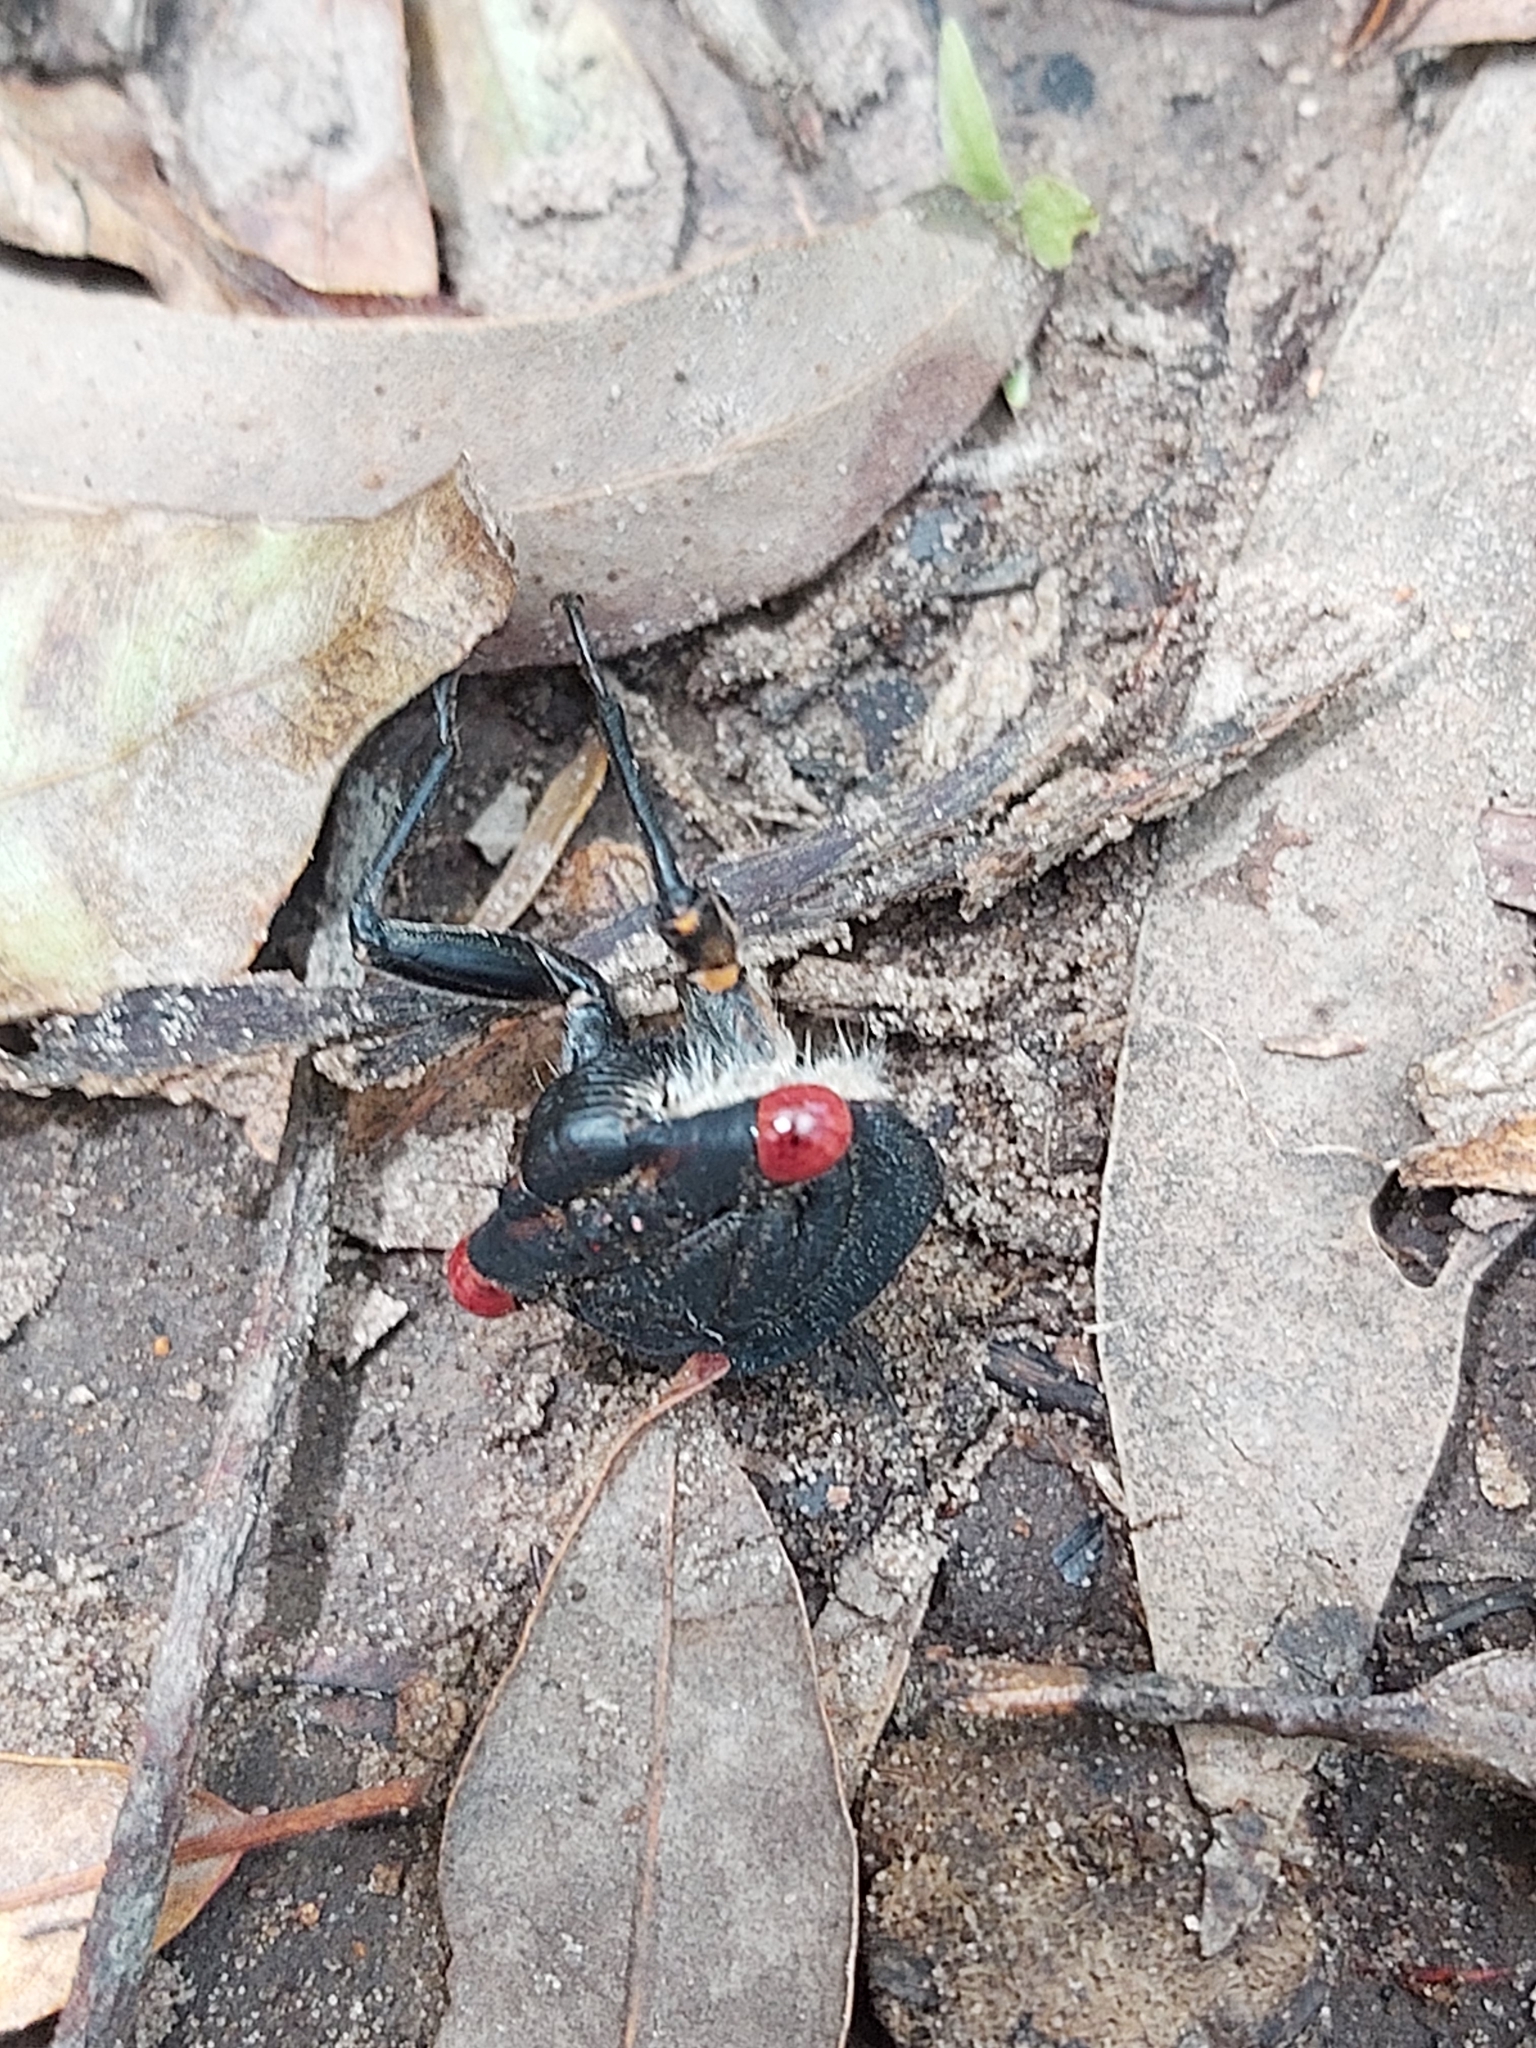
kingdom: Animalia
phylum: Arthropoda
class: Insecta
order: Hemiptera
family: Cicadidae
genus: Psaltoda
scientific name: Psaltoda moerens
